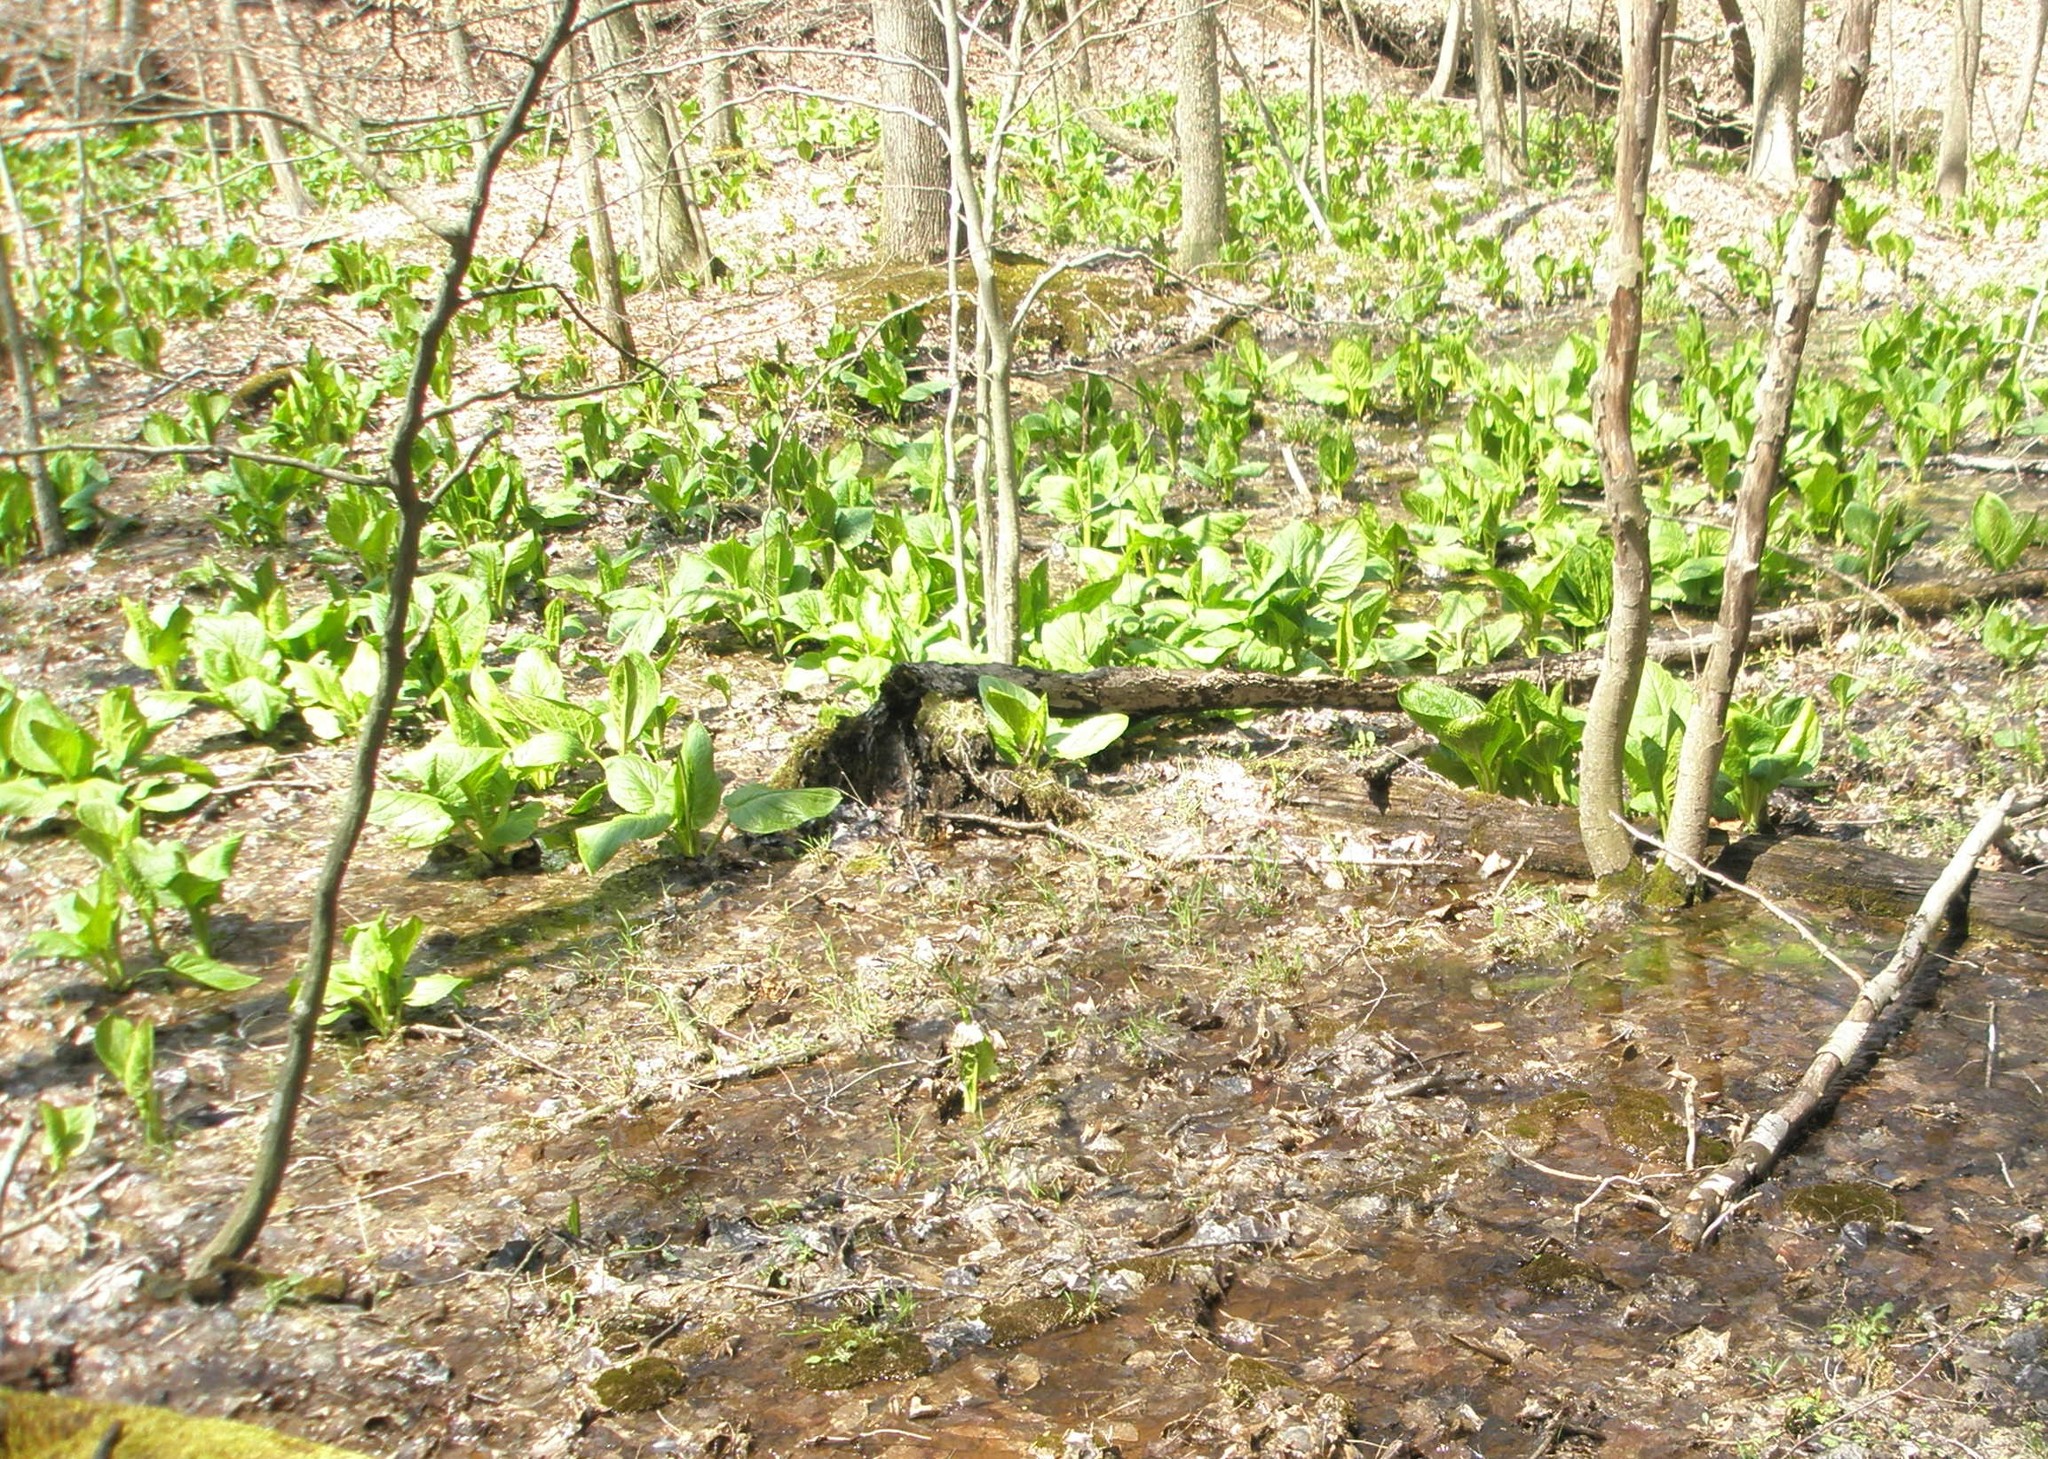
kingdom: Plantae
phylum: Tracheophyta
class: Liliopsida
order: Alismatales
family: Araceae
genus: Symplocarpus
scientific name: Symplocarpus foetidus
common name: Eastern skunk cabbage
